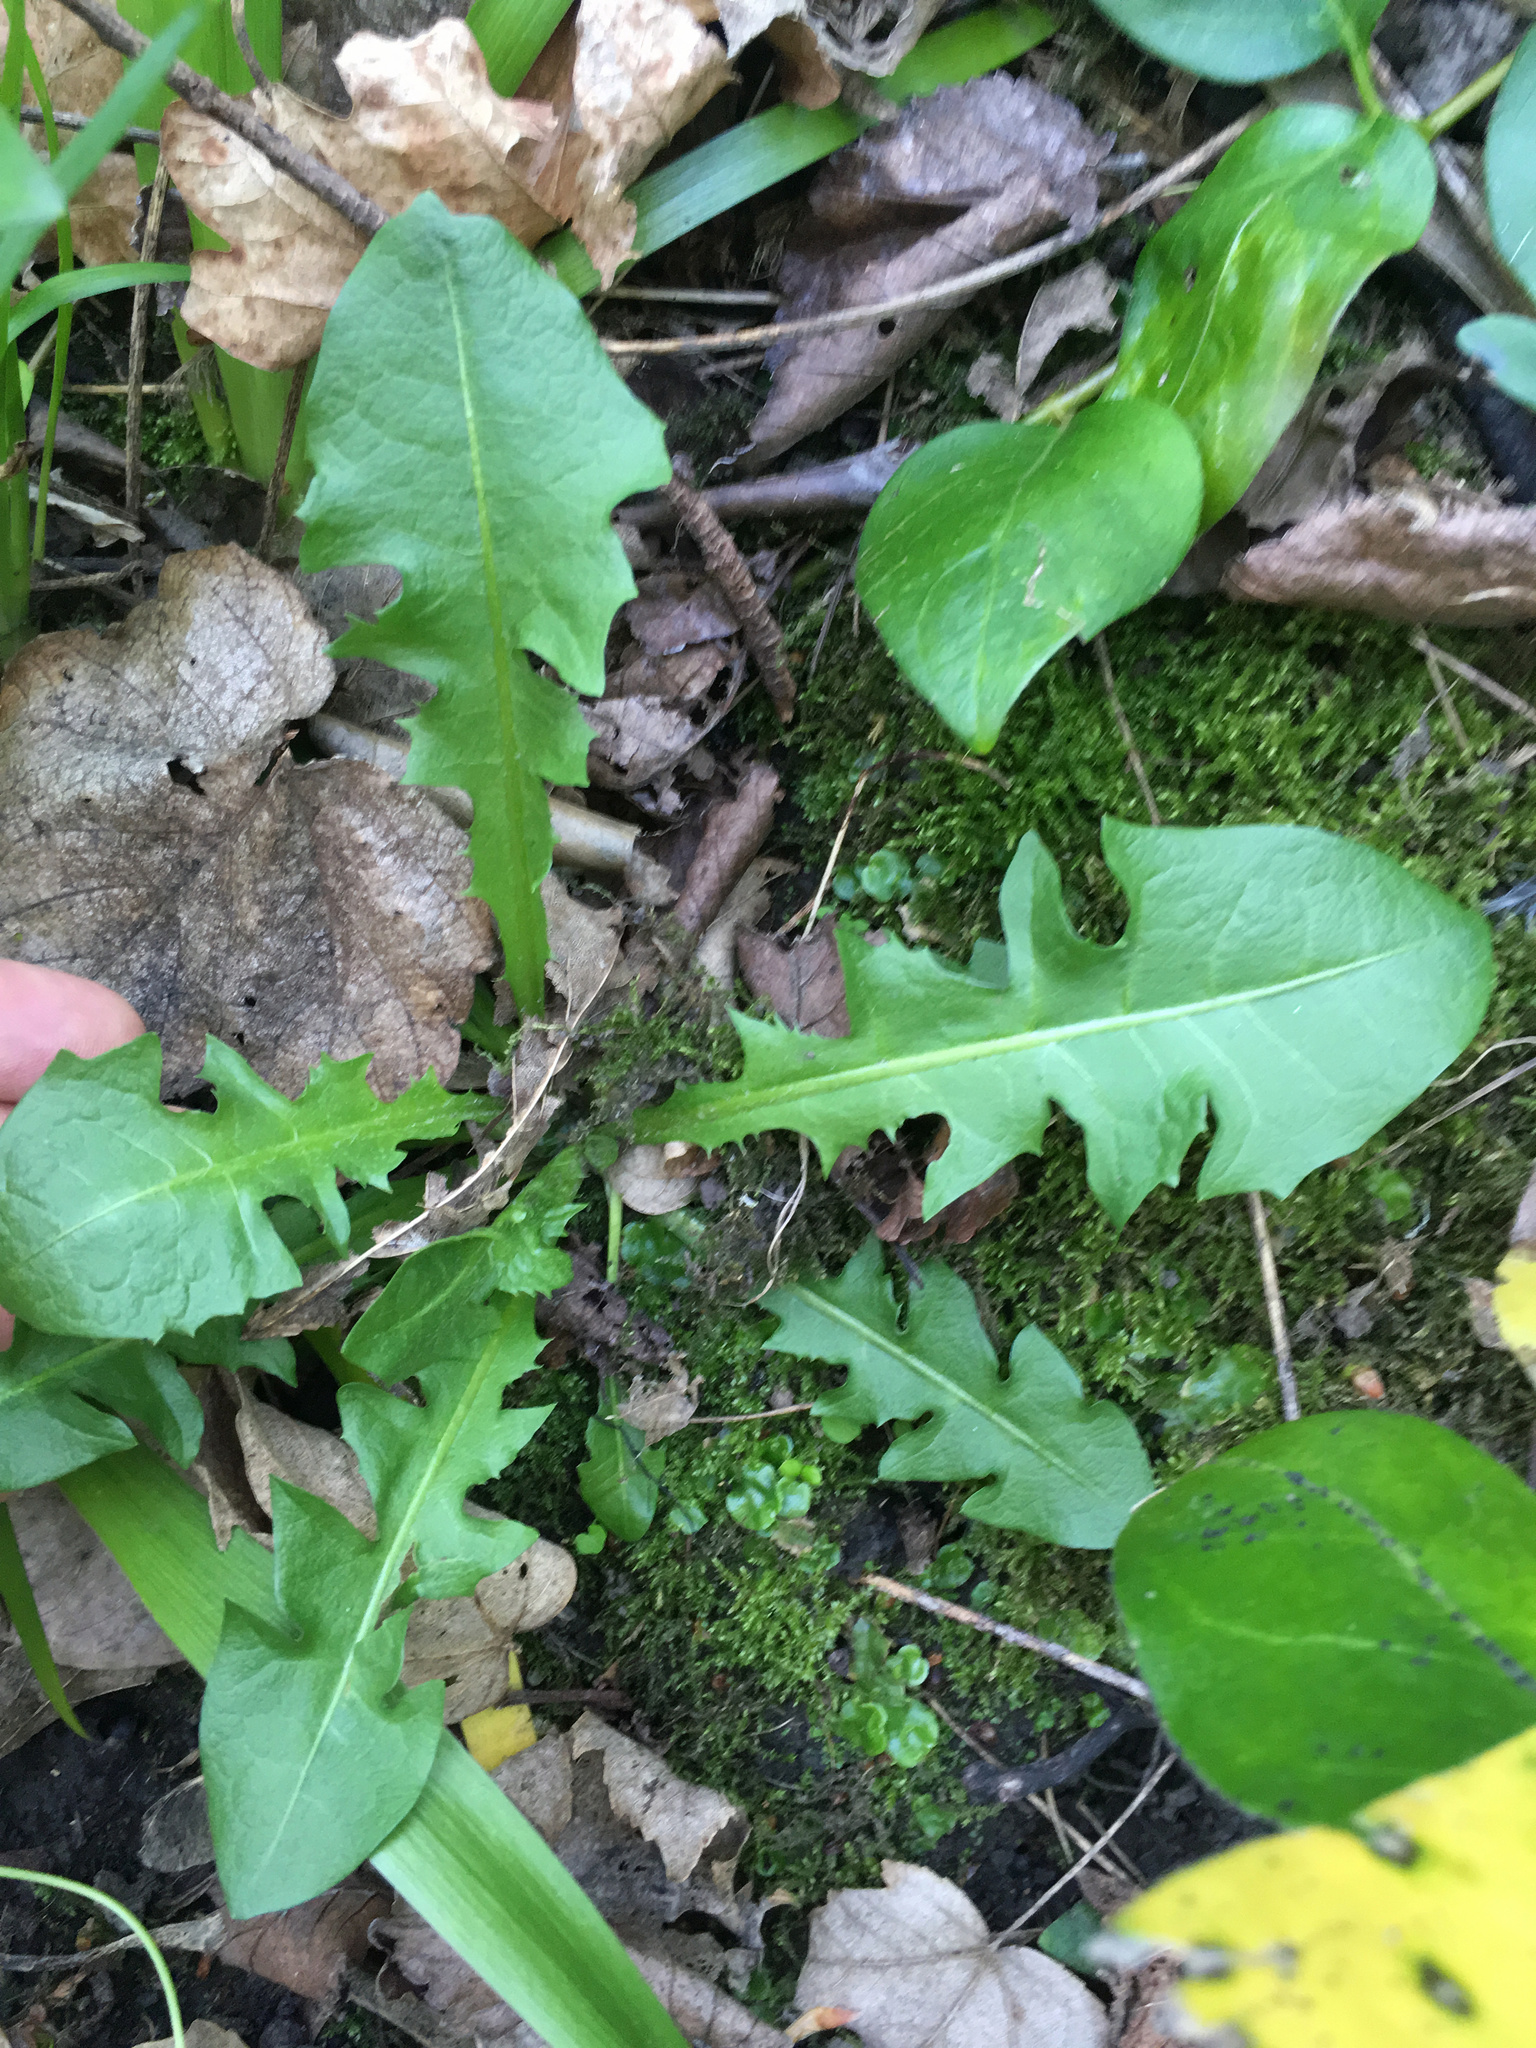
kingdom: Plantae
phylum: Tracheophyta
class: Magnoliopsida
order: Asterales
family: Asteraceae
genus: Taraxacum
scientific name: Taraxacum officinale
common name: Common dandelion
